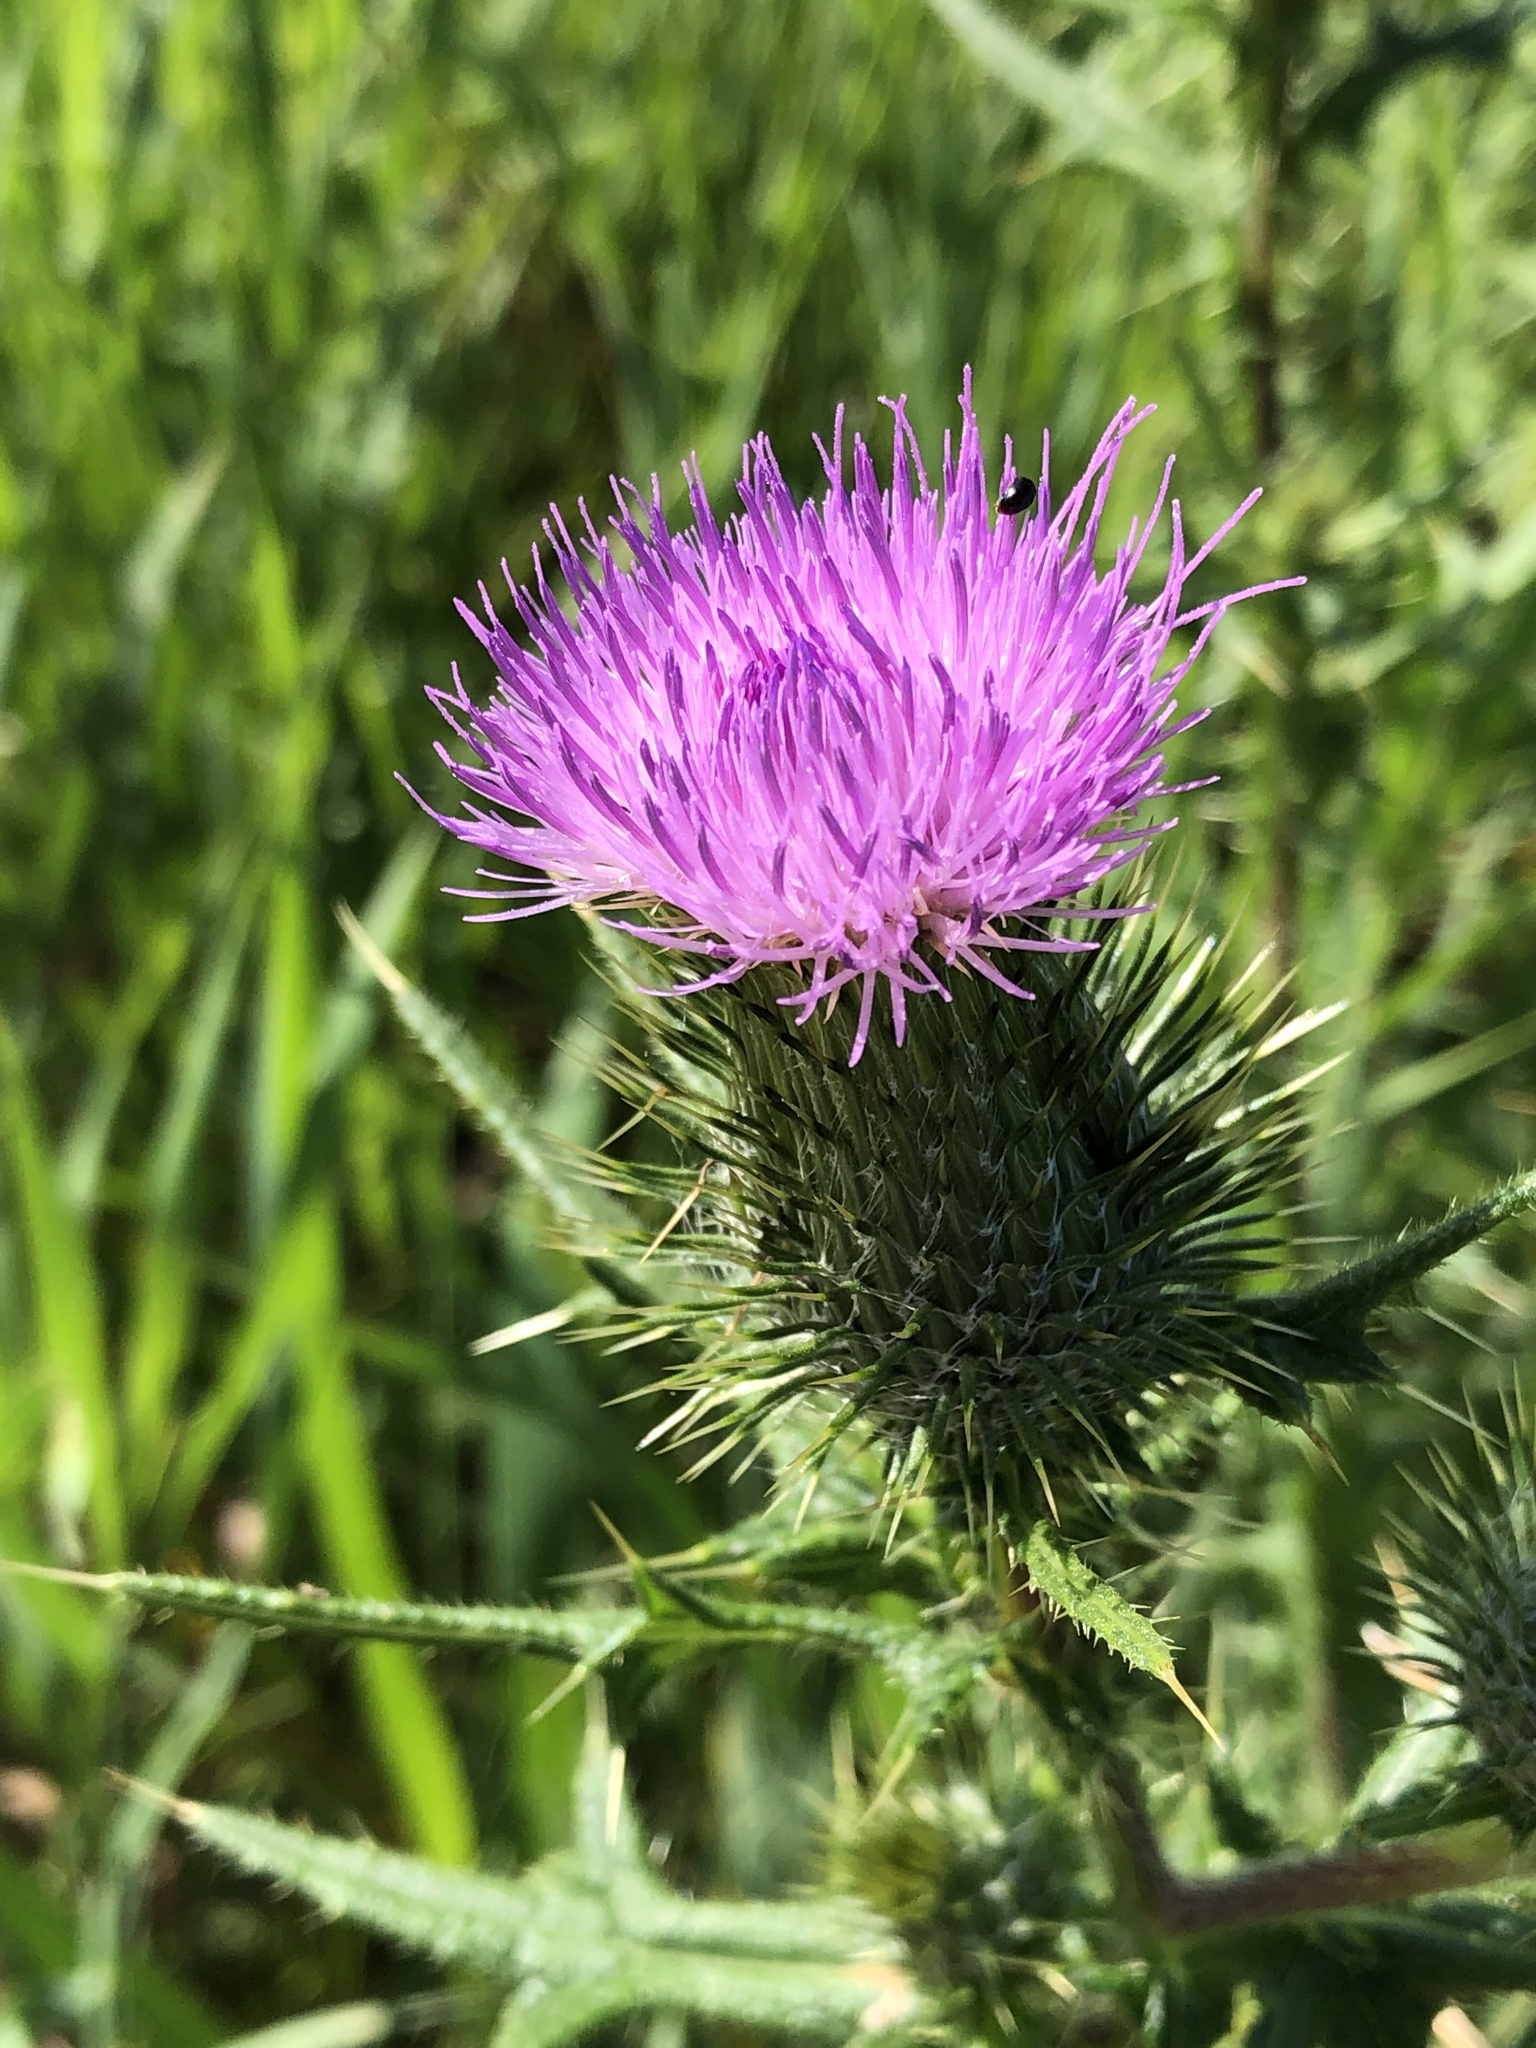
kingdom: Plantae
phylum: Tracheophyta
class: Magnoliopsida
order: Asterales
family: Asteraceae
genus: Cirsium
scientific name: Cirsium vulgare
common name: Bull thistle
